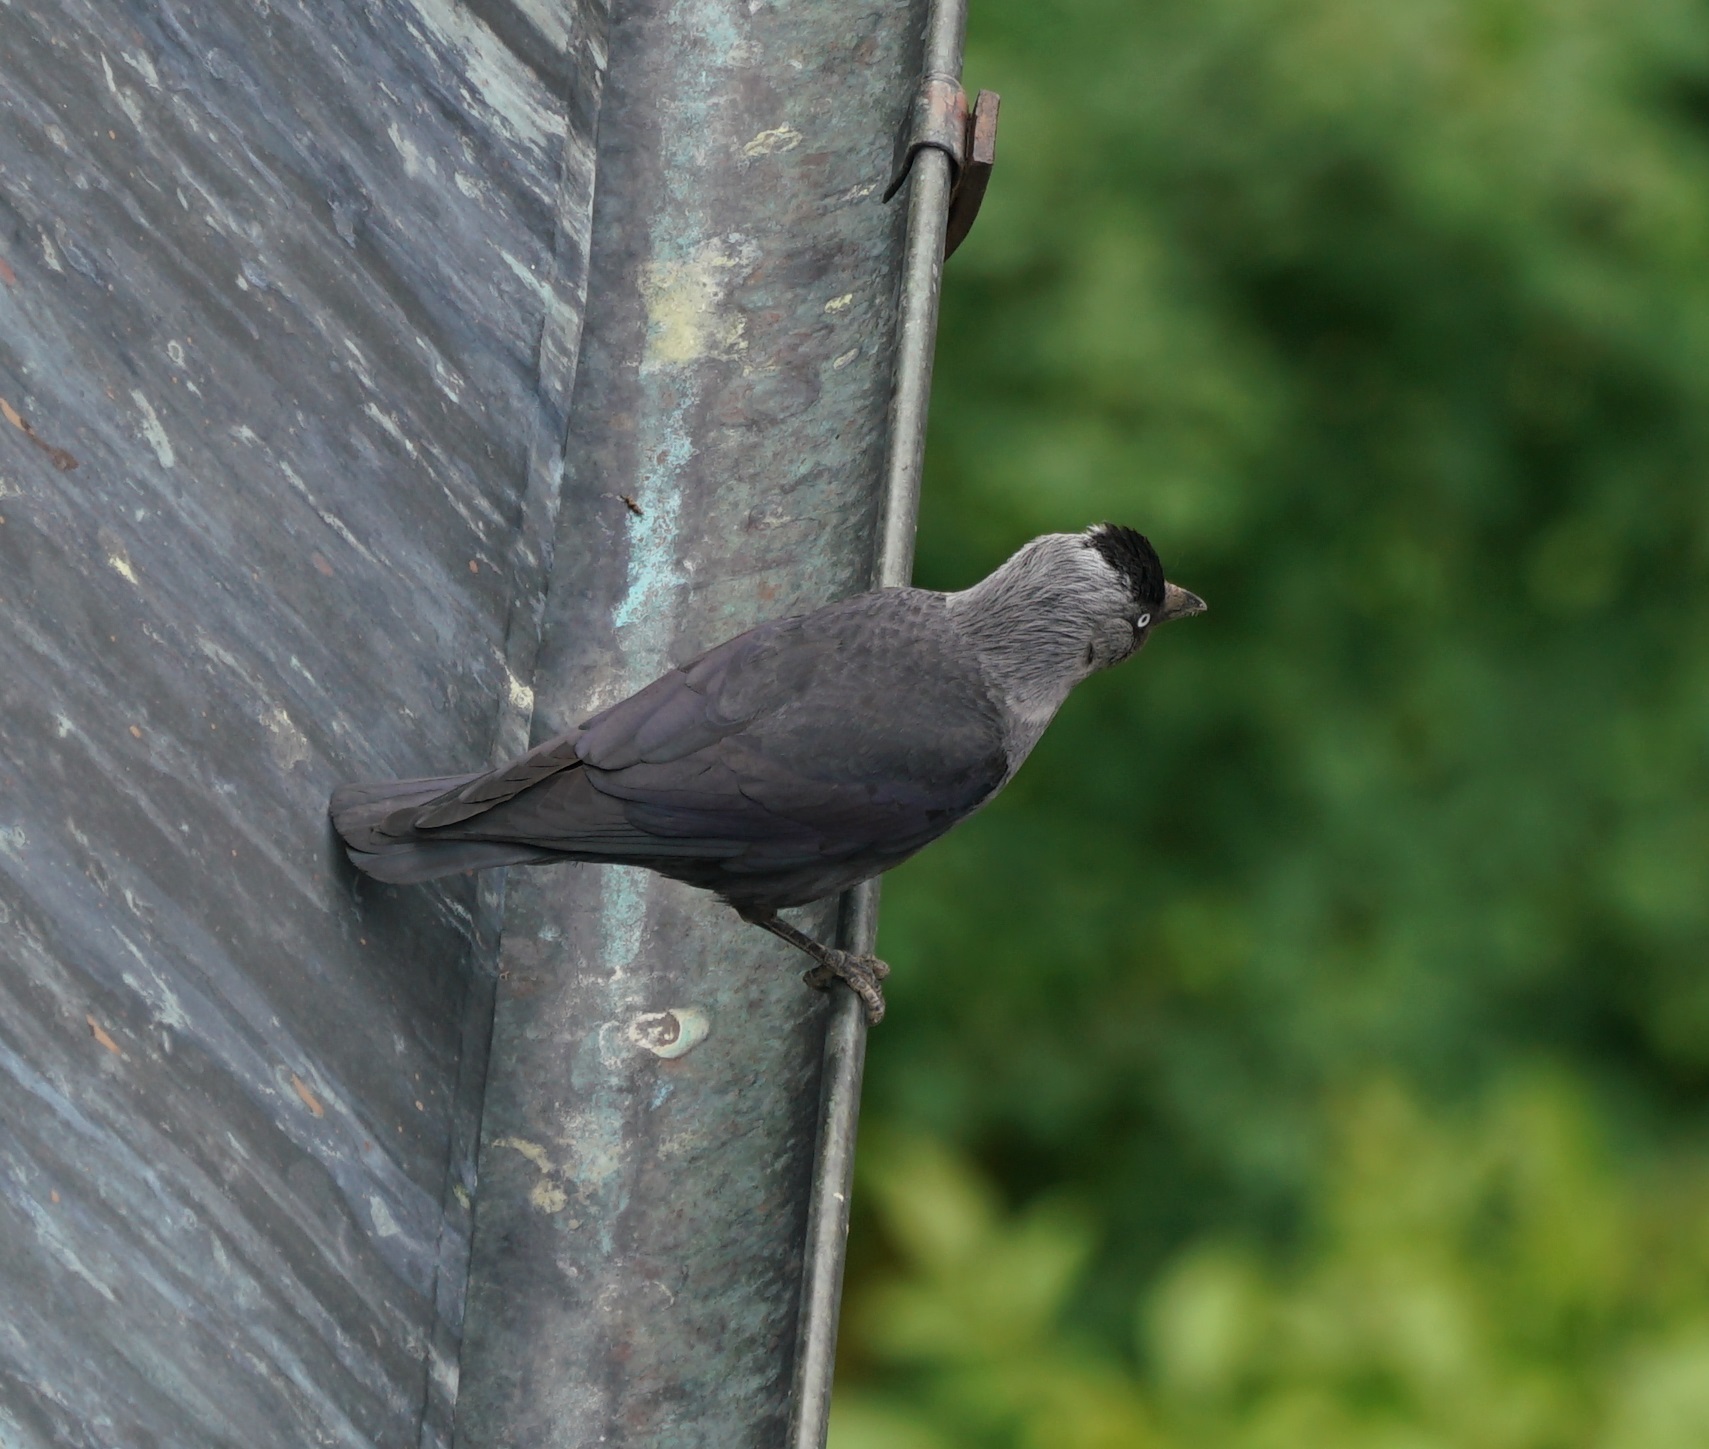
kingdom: Animalia
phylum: Chordata
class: Aves
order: Passeriformes
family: Corvidae
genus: Coloeus
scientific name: Coloeus monedula
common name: Western jackdaw
